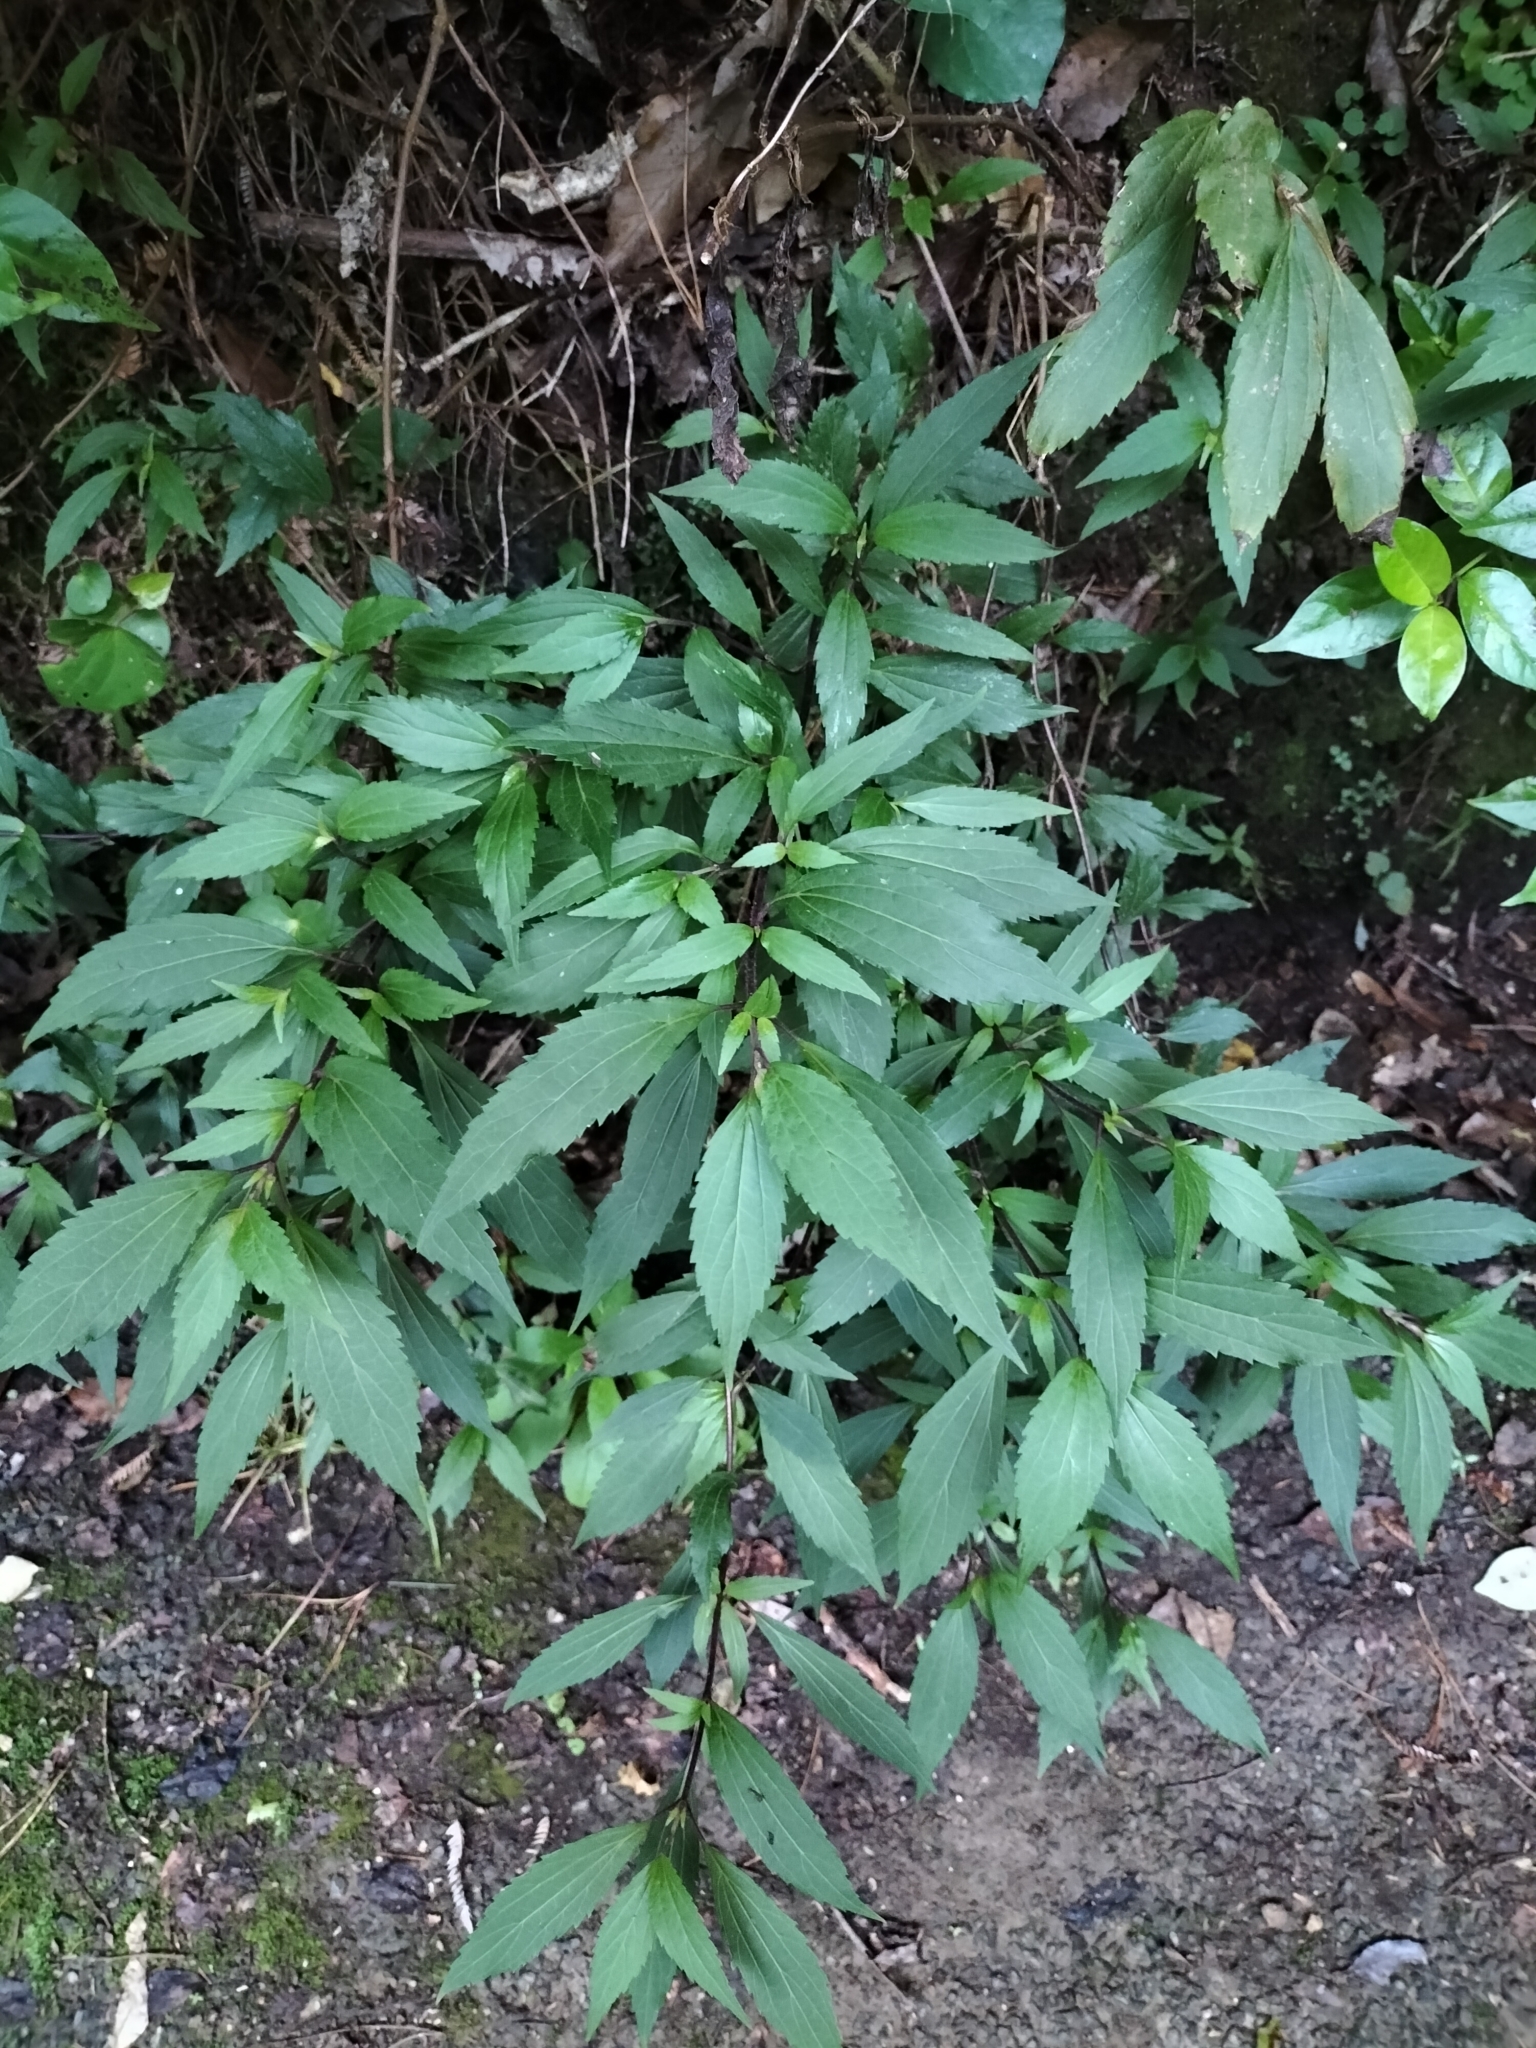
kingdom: Plantae
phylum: Tracheophyta
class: Magnoliopsida
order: Asterales
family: Asteraceae
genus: Ageratina
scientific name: Ageratina riparia
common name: Creeping croftonweed
